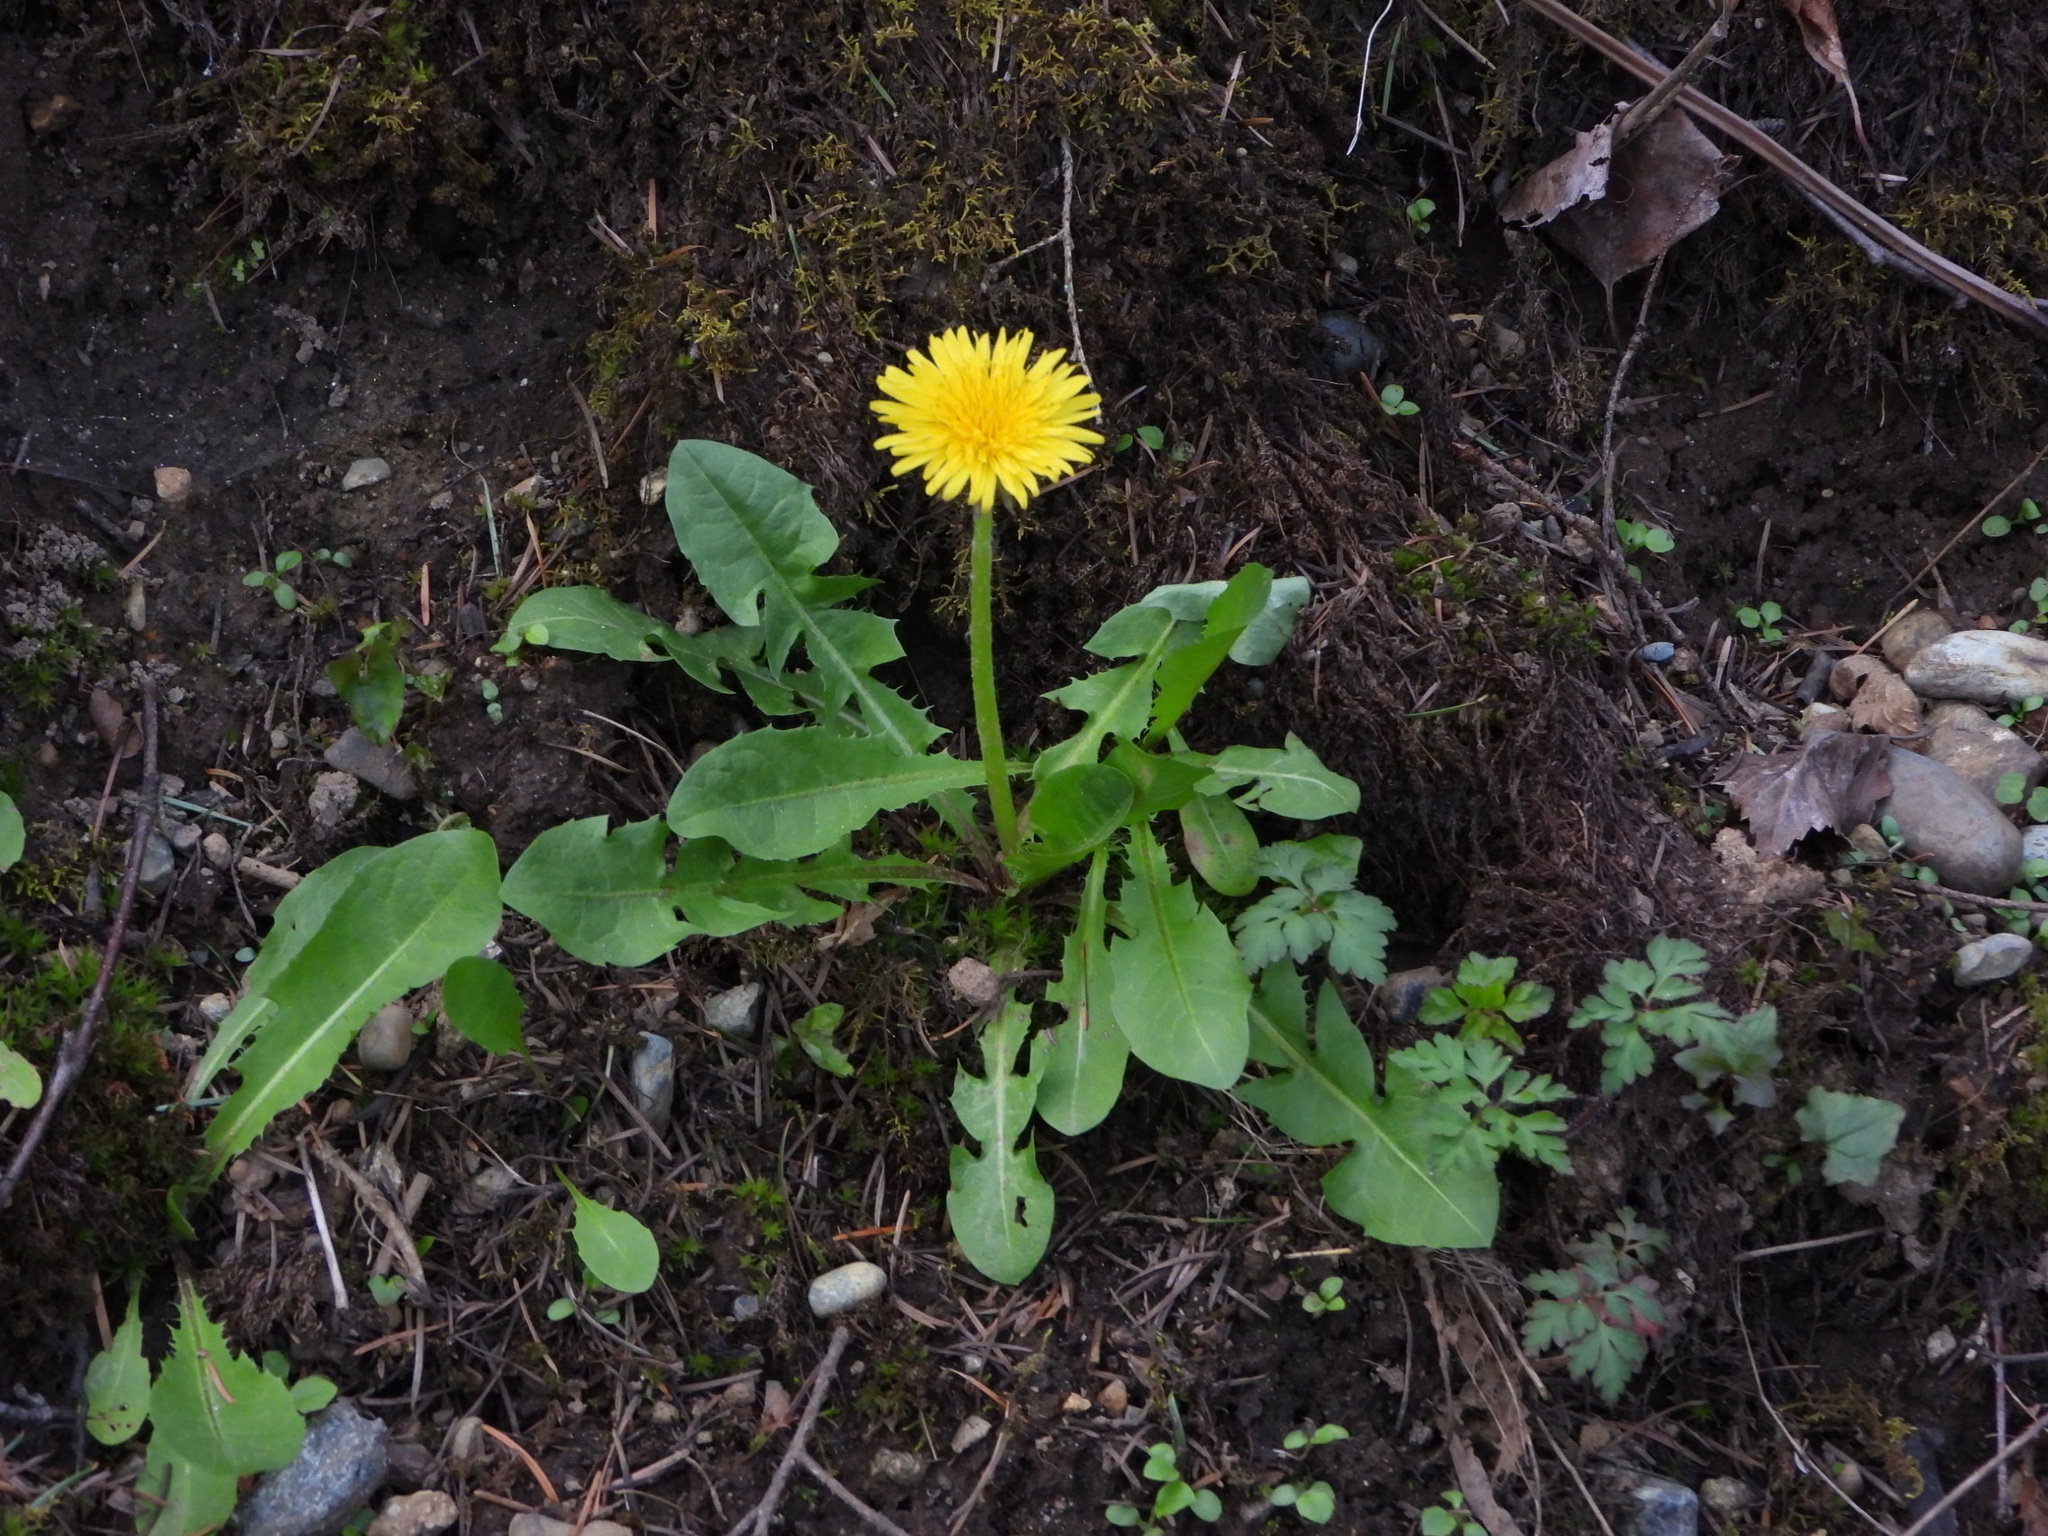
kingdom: Plantae
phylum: Tracheophyta
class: Magnoliopsida
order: Asterales
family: Asteraceae
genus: Taraxacum
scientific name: Taraxacum officinale
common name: Common dandelion
